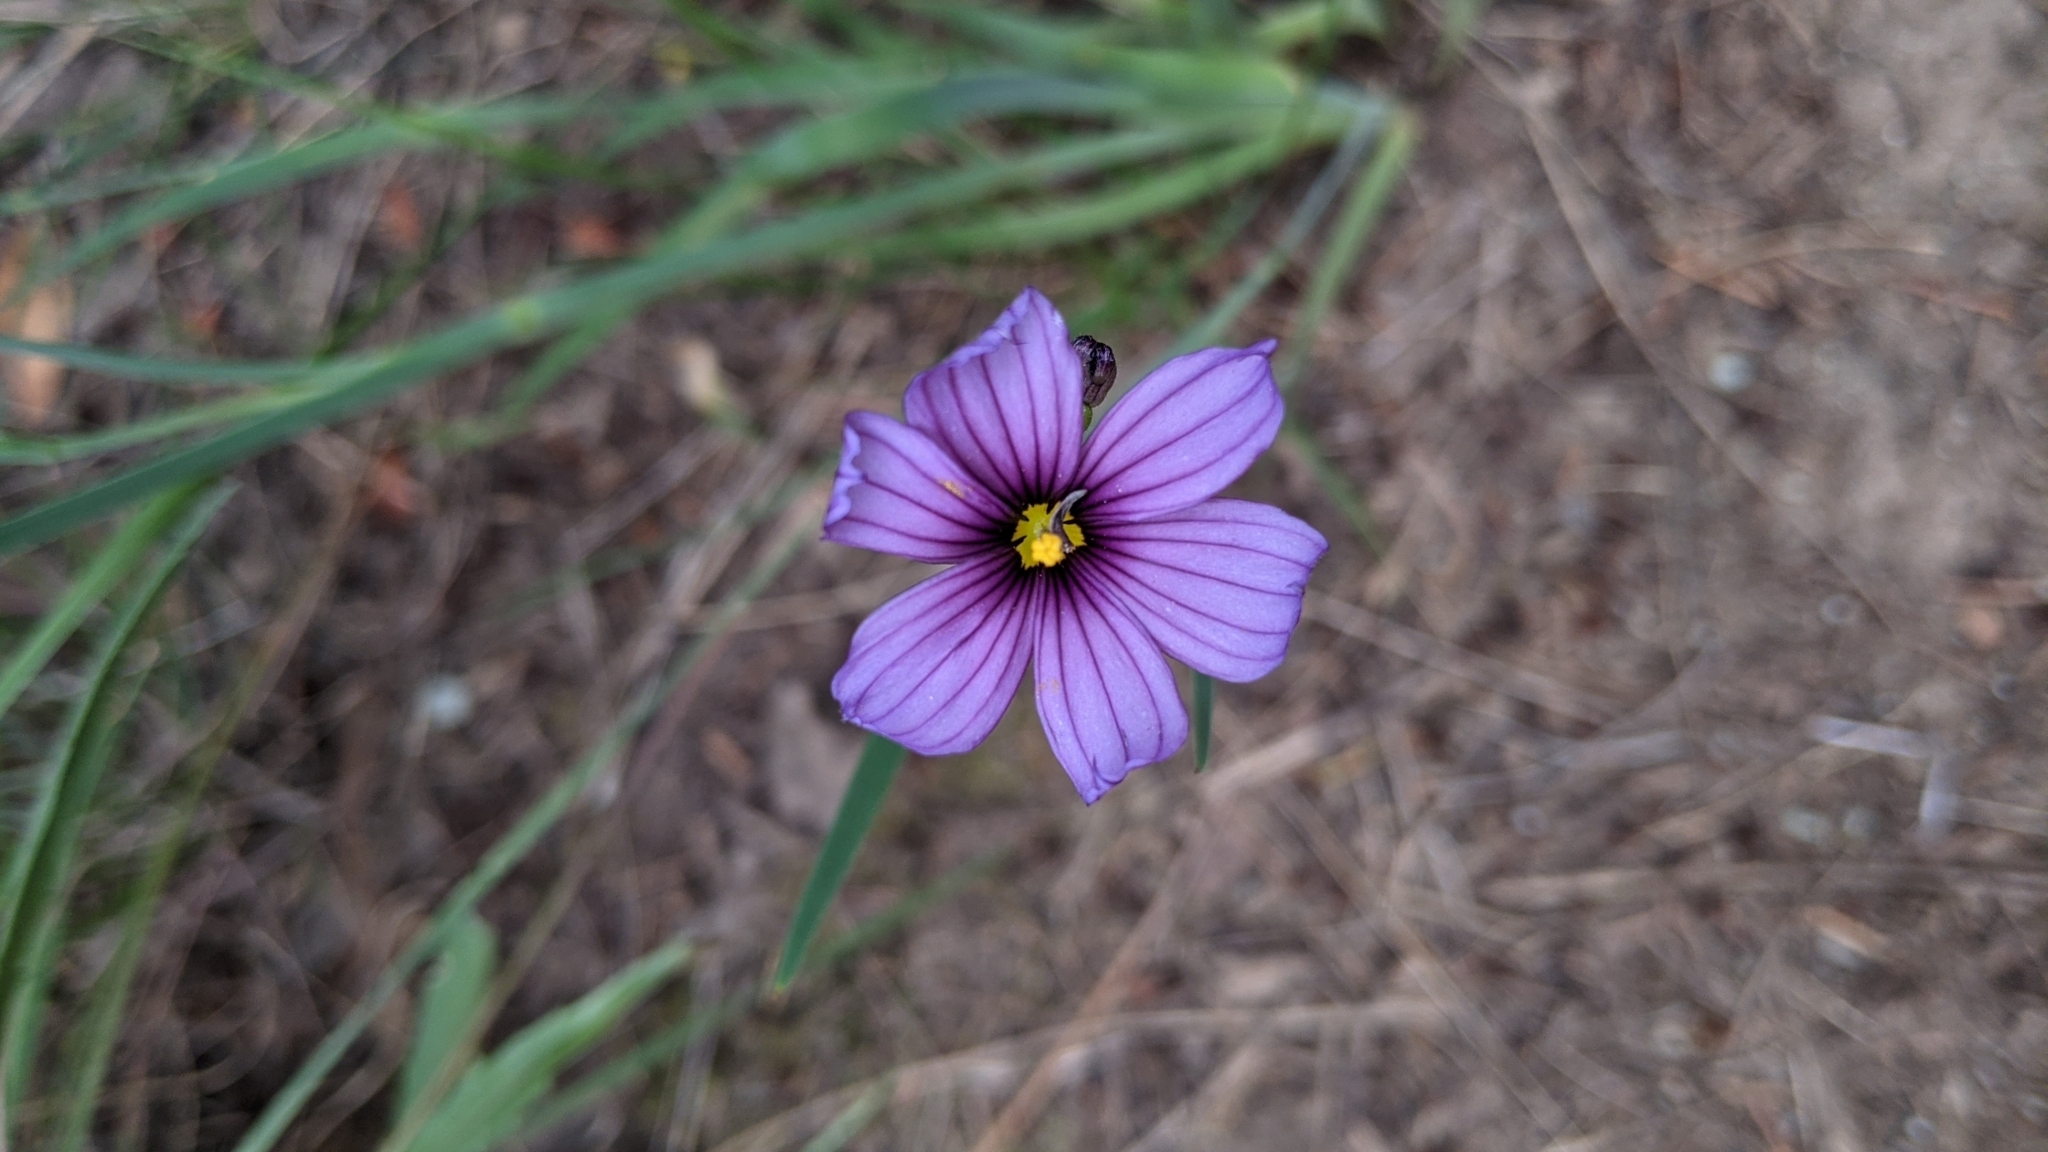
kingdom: Plantae
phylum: Tracheophyta
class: Liliopsida
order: Asparagales
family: Iridaceae
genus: Sisyrinchium
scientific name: Sisyrinchium bellum
